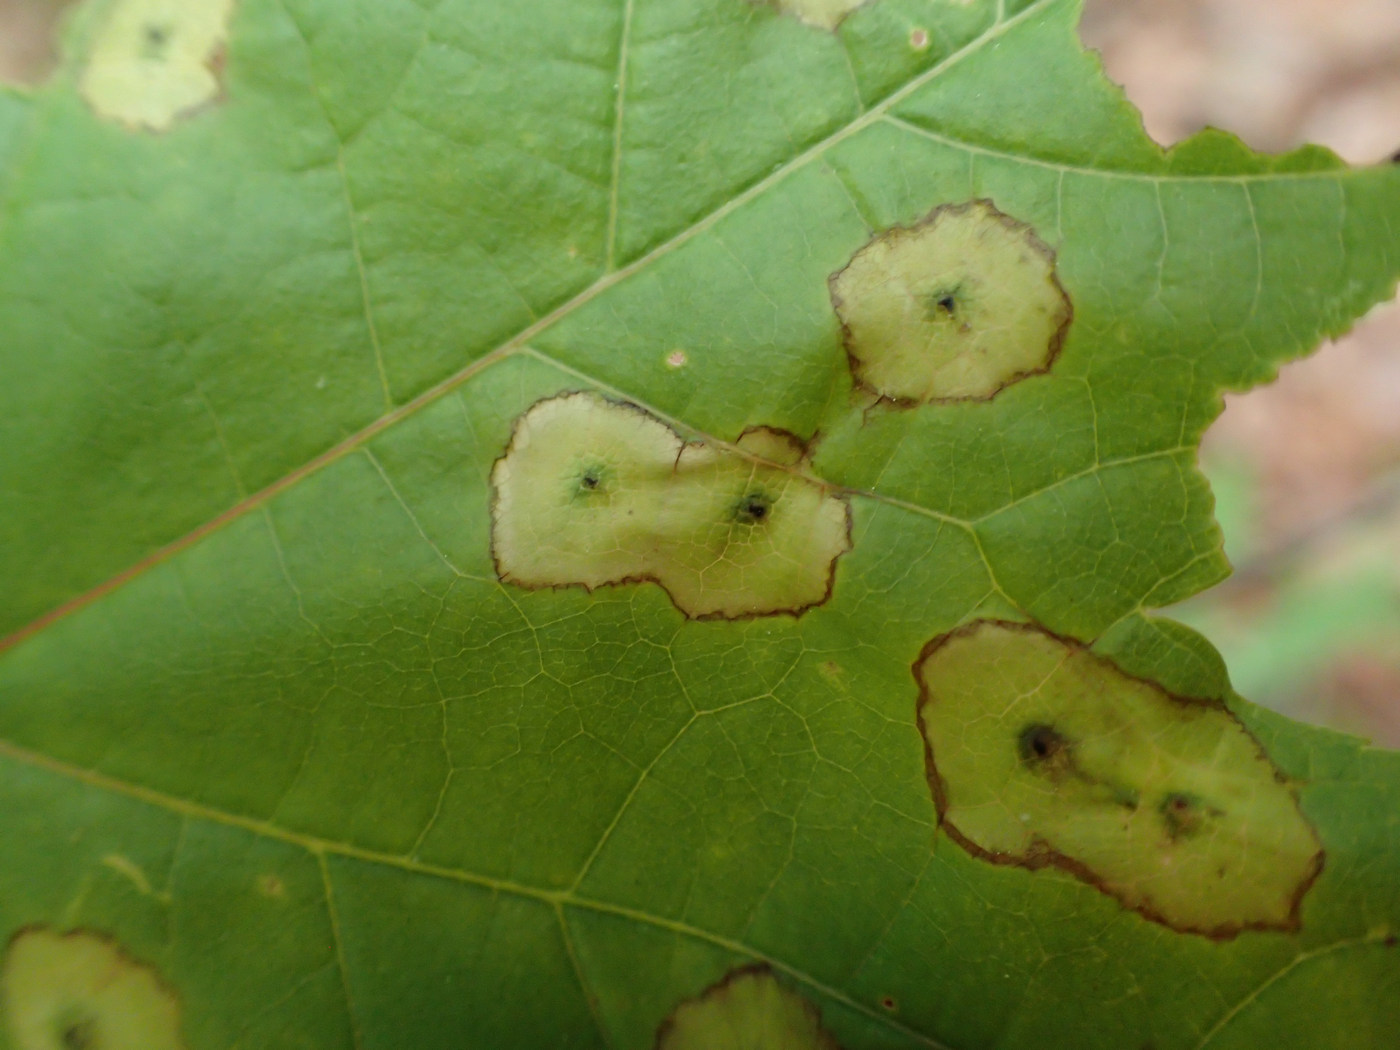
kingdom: Animalia
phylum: Arthropoda
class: Insecta
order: Diptera
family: Cecidomyiidae
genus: Acericecis
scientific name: Acericecis ocellaris
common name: Ocellate gall midge
